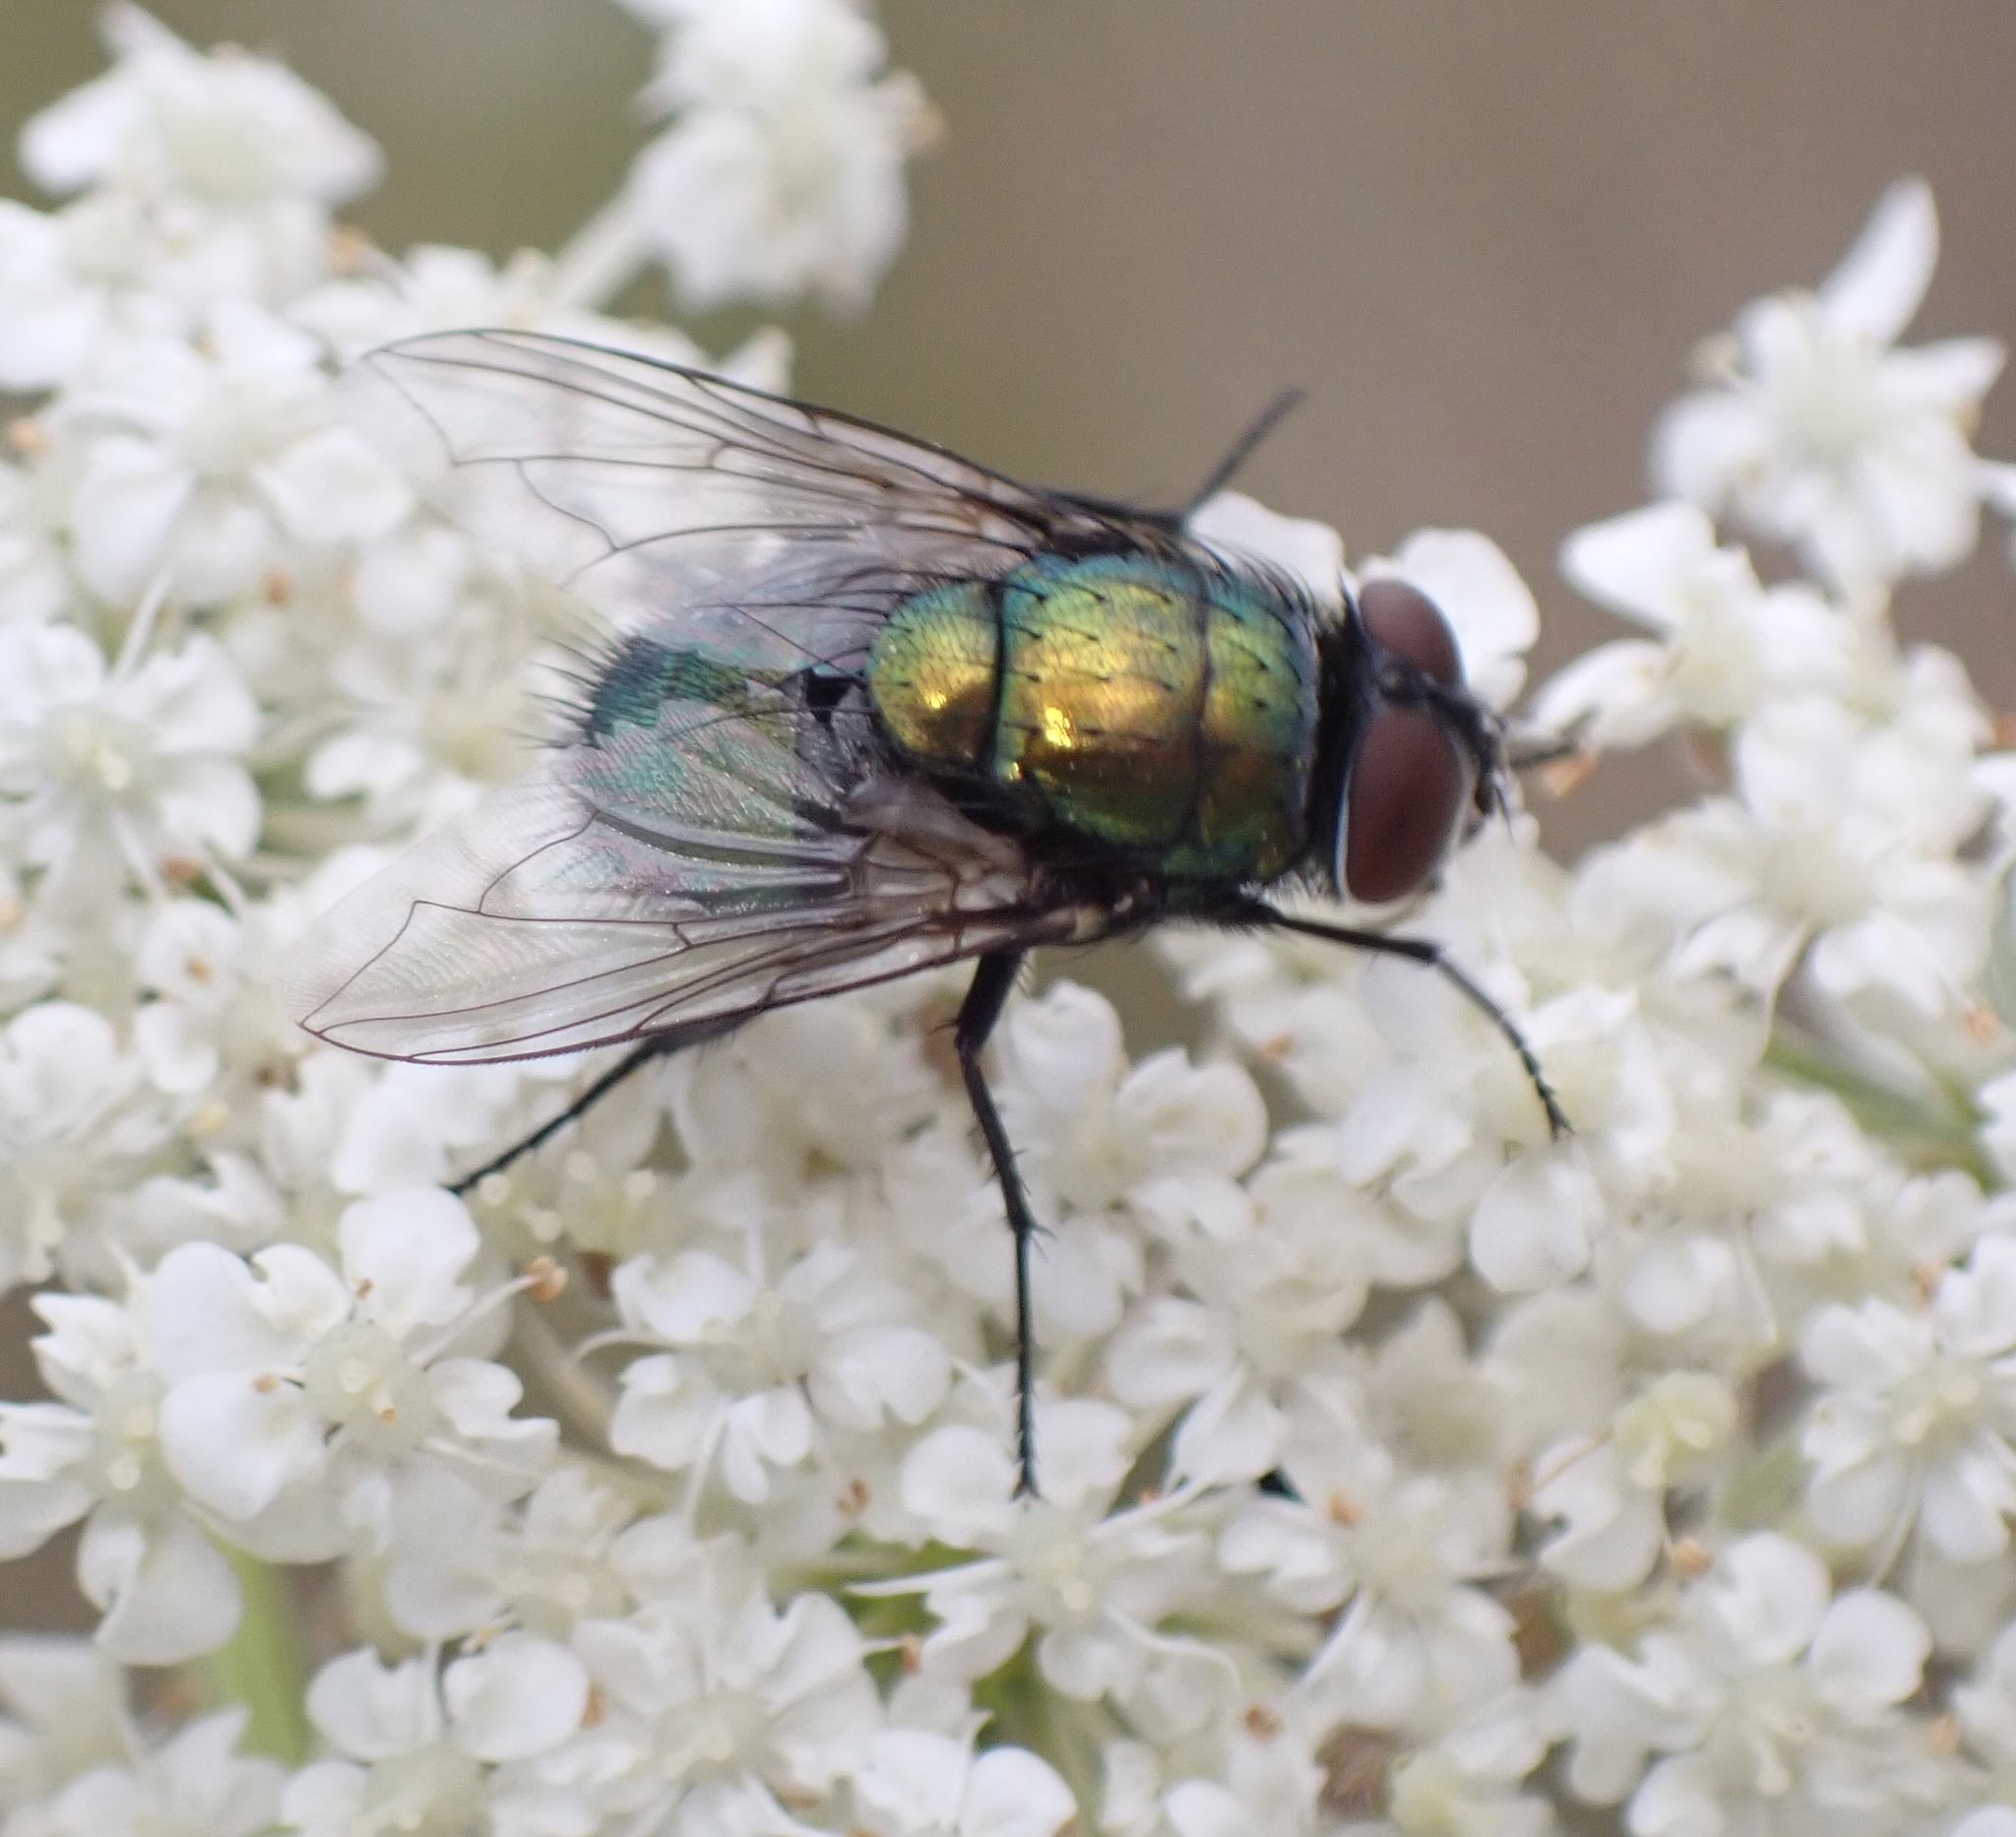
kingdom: Animalia
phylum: Arthropoda
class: Insecta
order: Diptera
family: Calliphoridae
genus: Lucilia
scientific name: Lucilia
